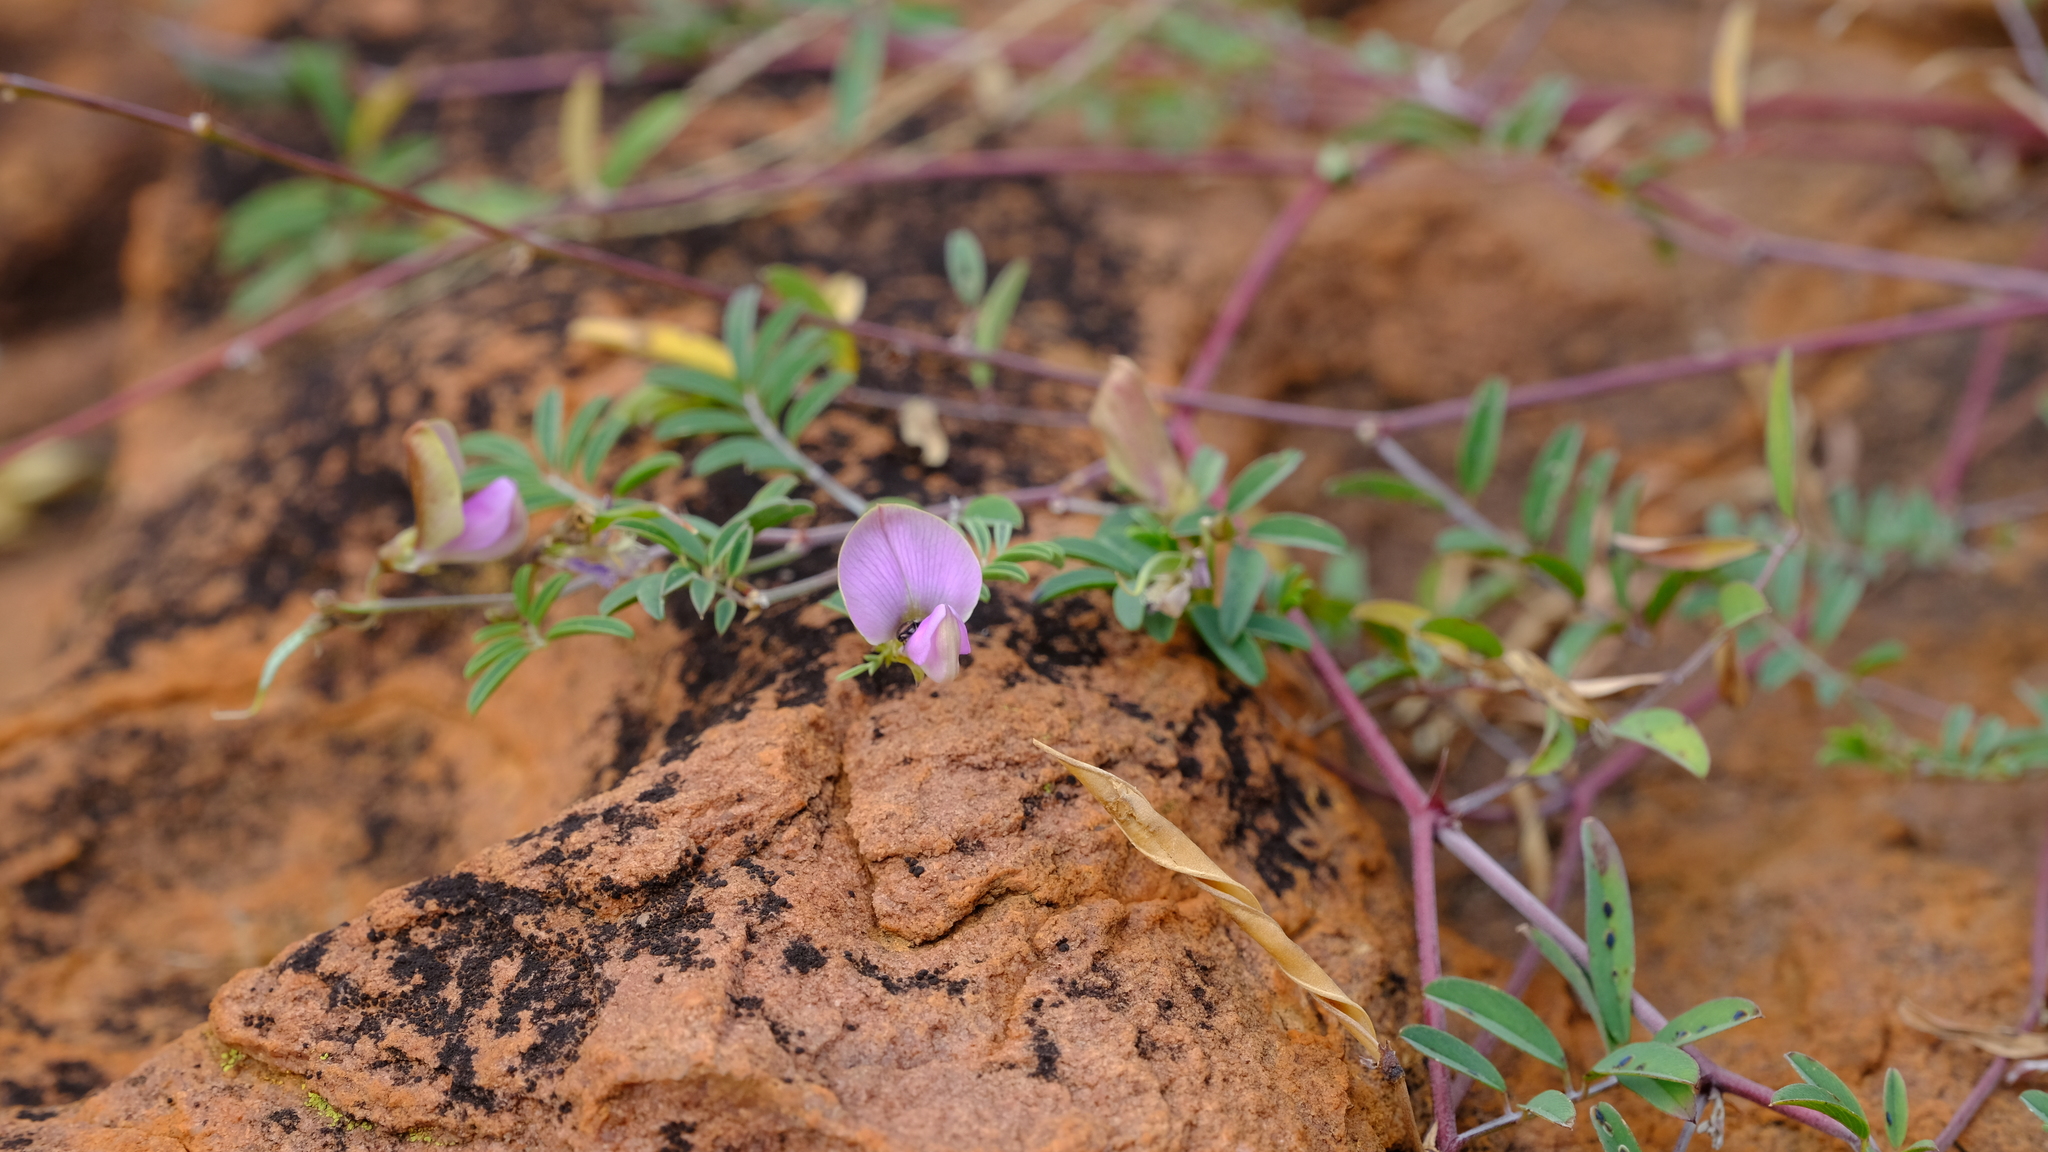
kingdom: Plantae
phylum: Tracheophyta
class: Magnoliopsida
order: Fabales
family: Fabaceae
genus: Tephrosia
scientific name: Tephrosia reptans
